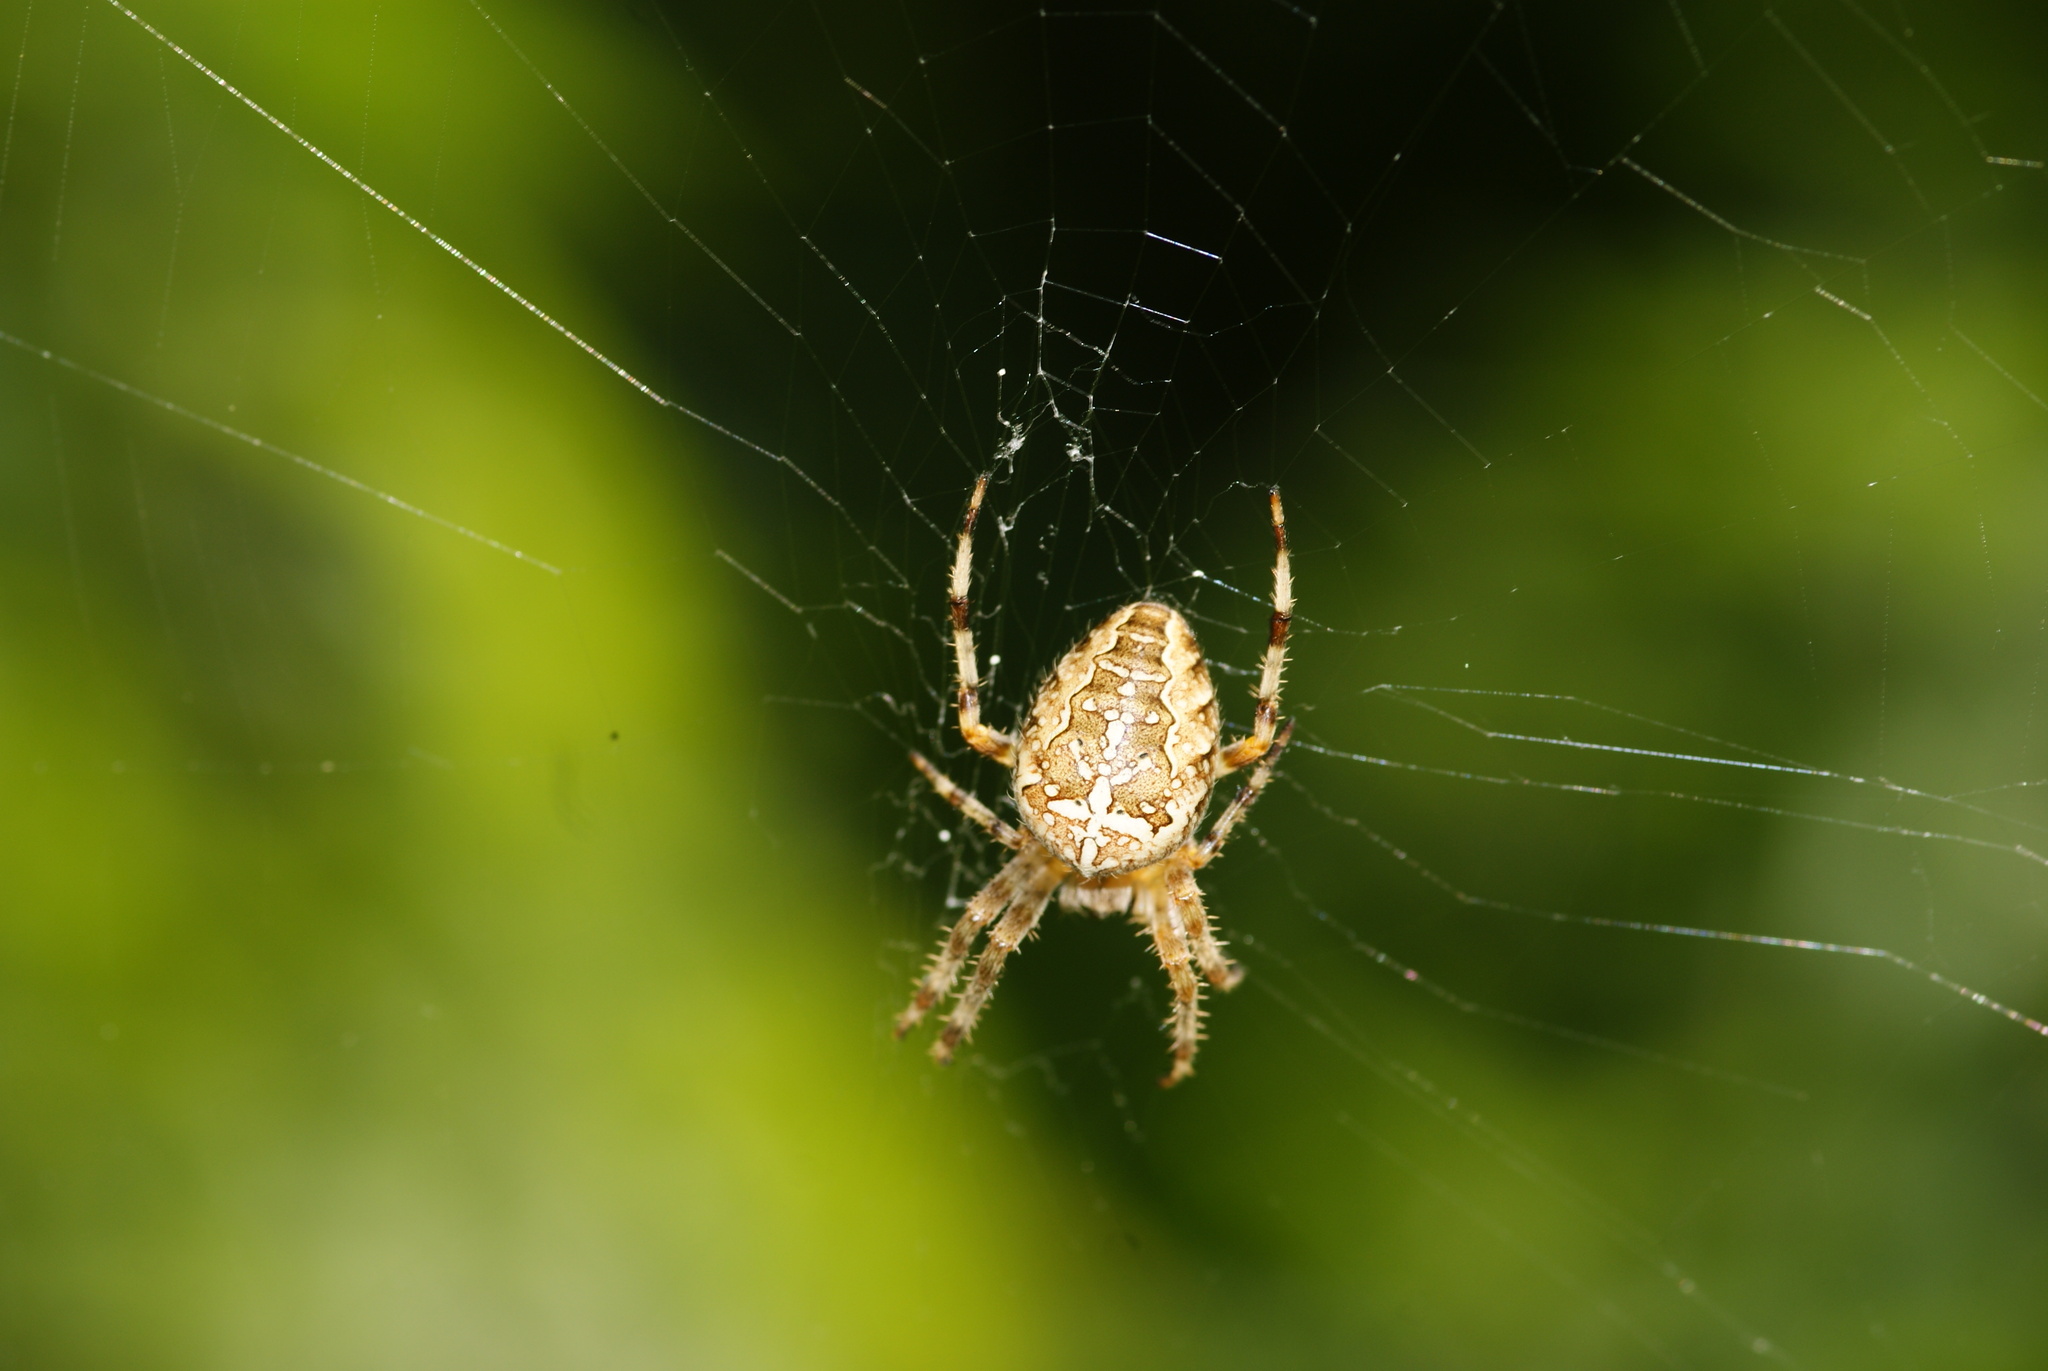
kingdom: Animalia
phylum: Arthropoda
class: Arachnida
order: Araneae
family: Araneidae
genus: Araneus
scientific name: Araneus diadematus
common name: Cross orbweaver
